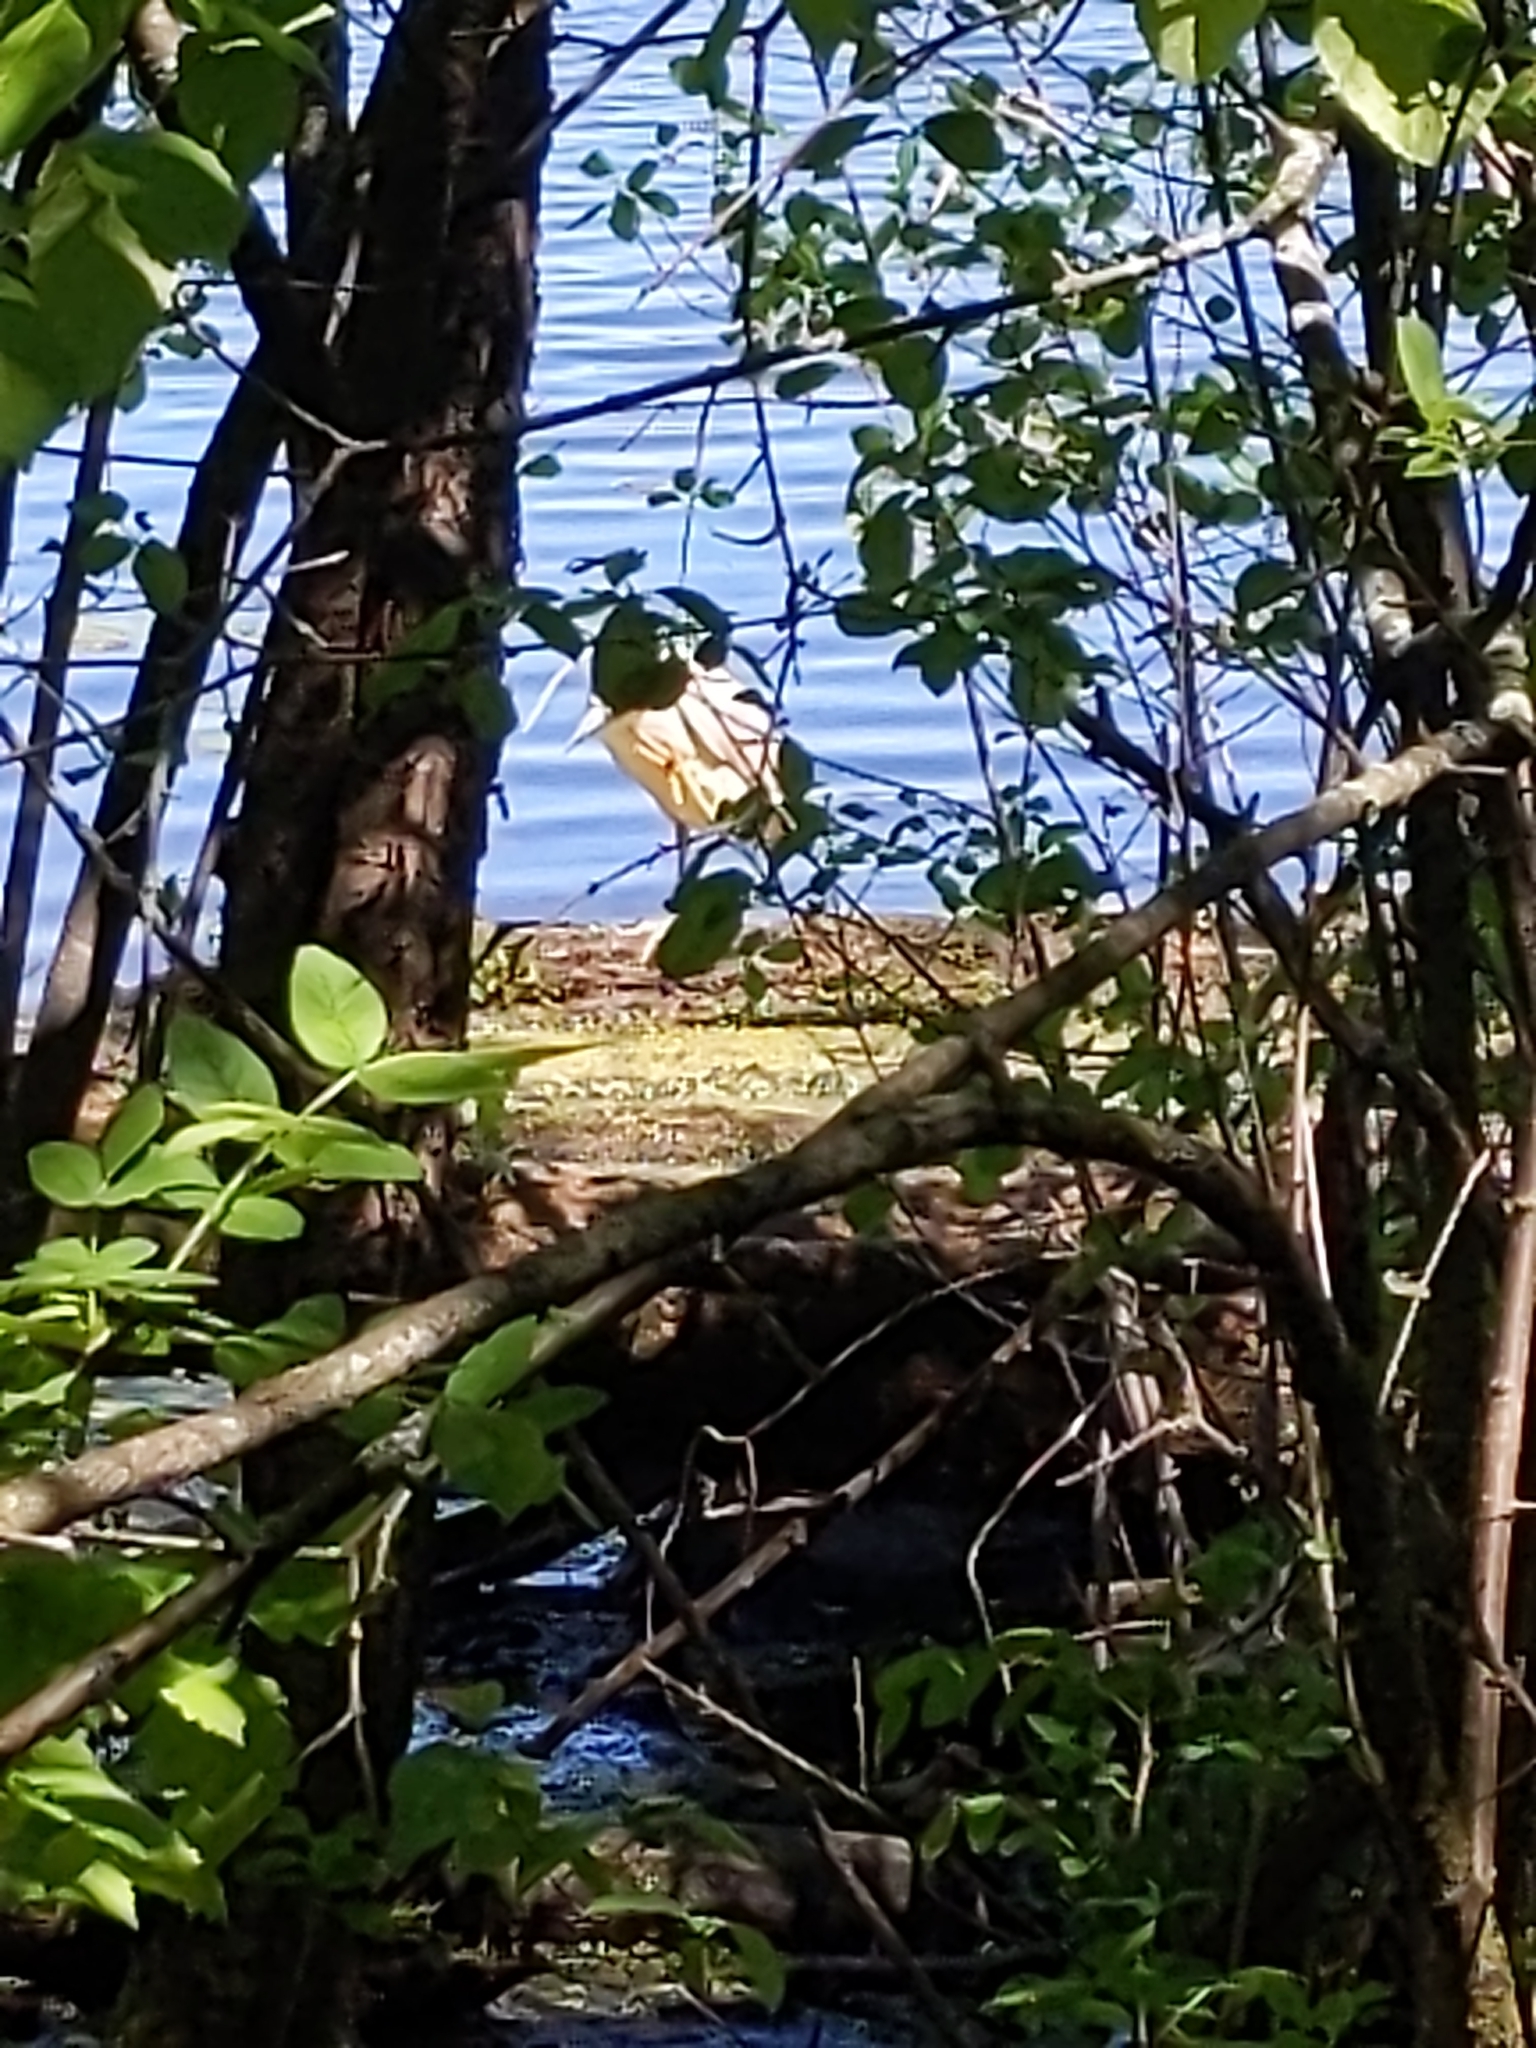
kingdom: Animalia
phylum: Chordata
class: Aves
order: Pelecaniformes
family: Ardeidae
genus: Nycticorax
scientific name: Nycticorax nycticorax
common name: Black-crowned night heron
